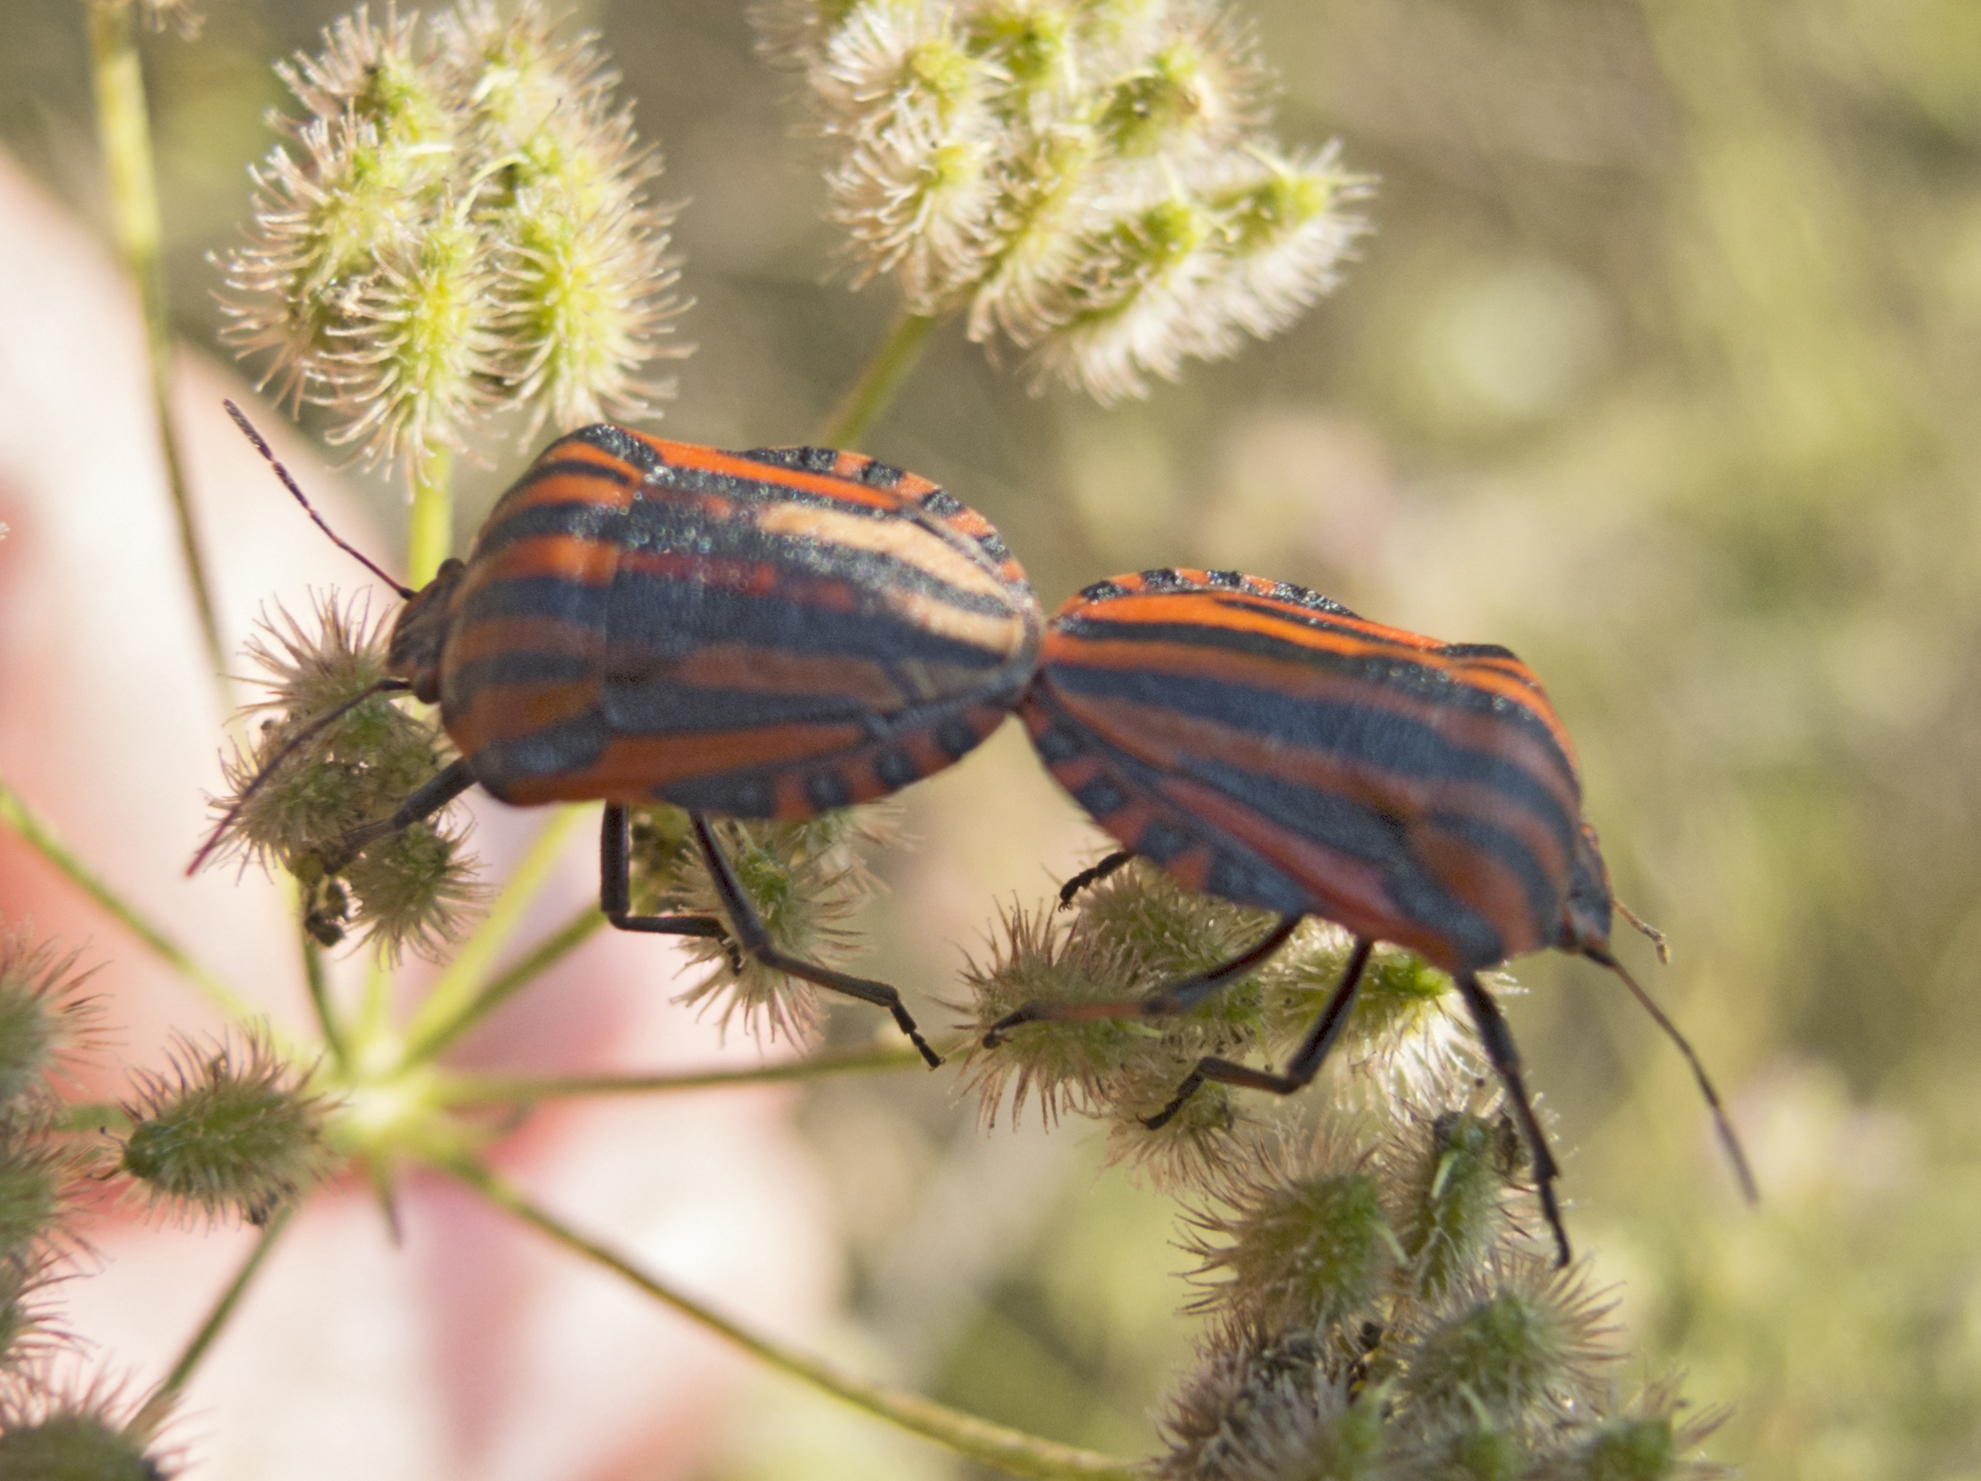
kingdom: Animalia
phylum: Arthropoda
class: Insecta
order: Hemiptera
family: Pentatomidae
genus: Graphosoma
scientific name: Graphosoma italicum
